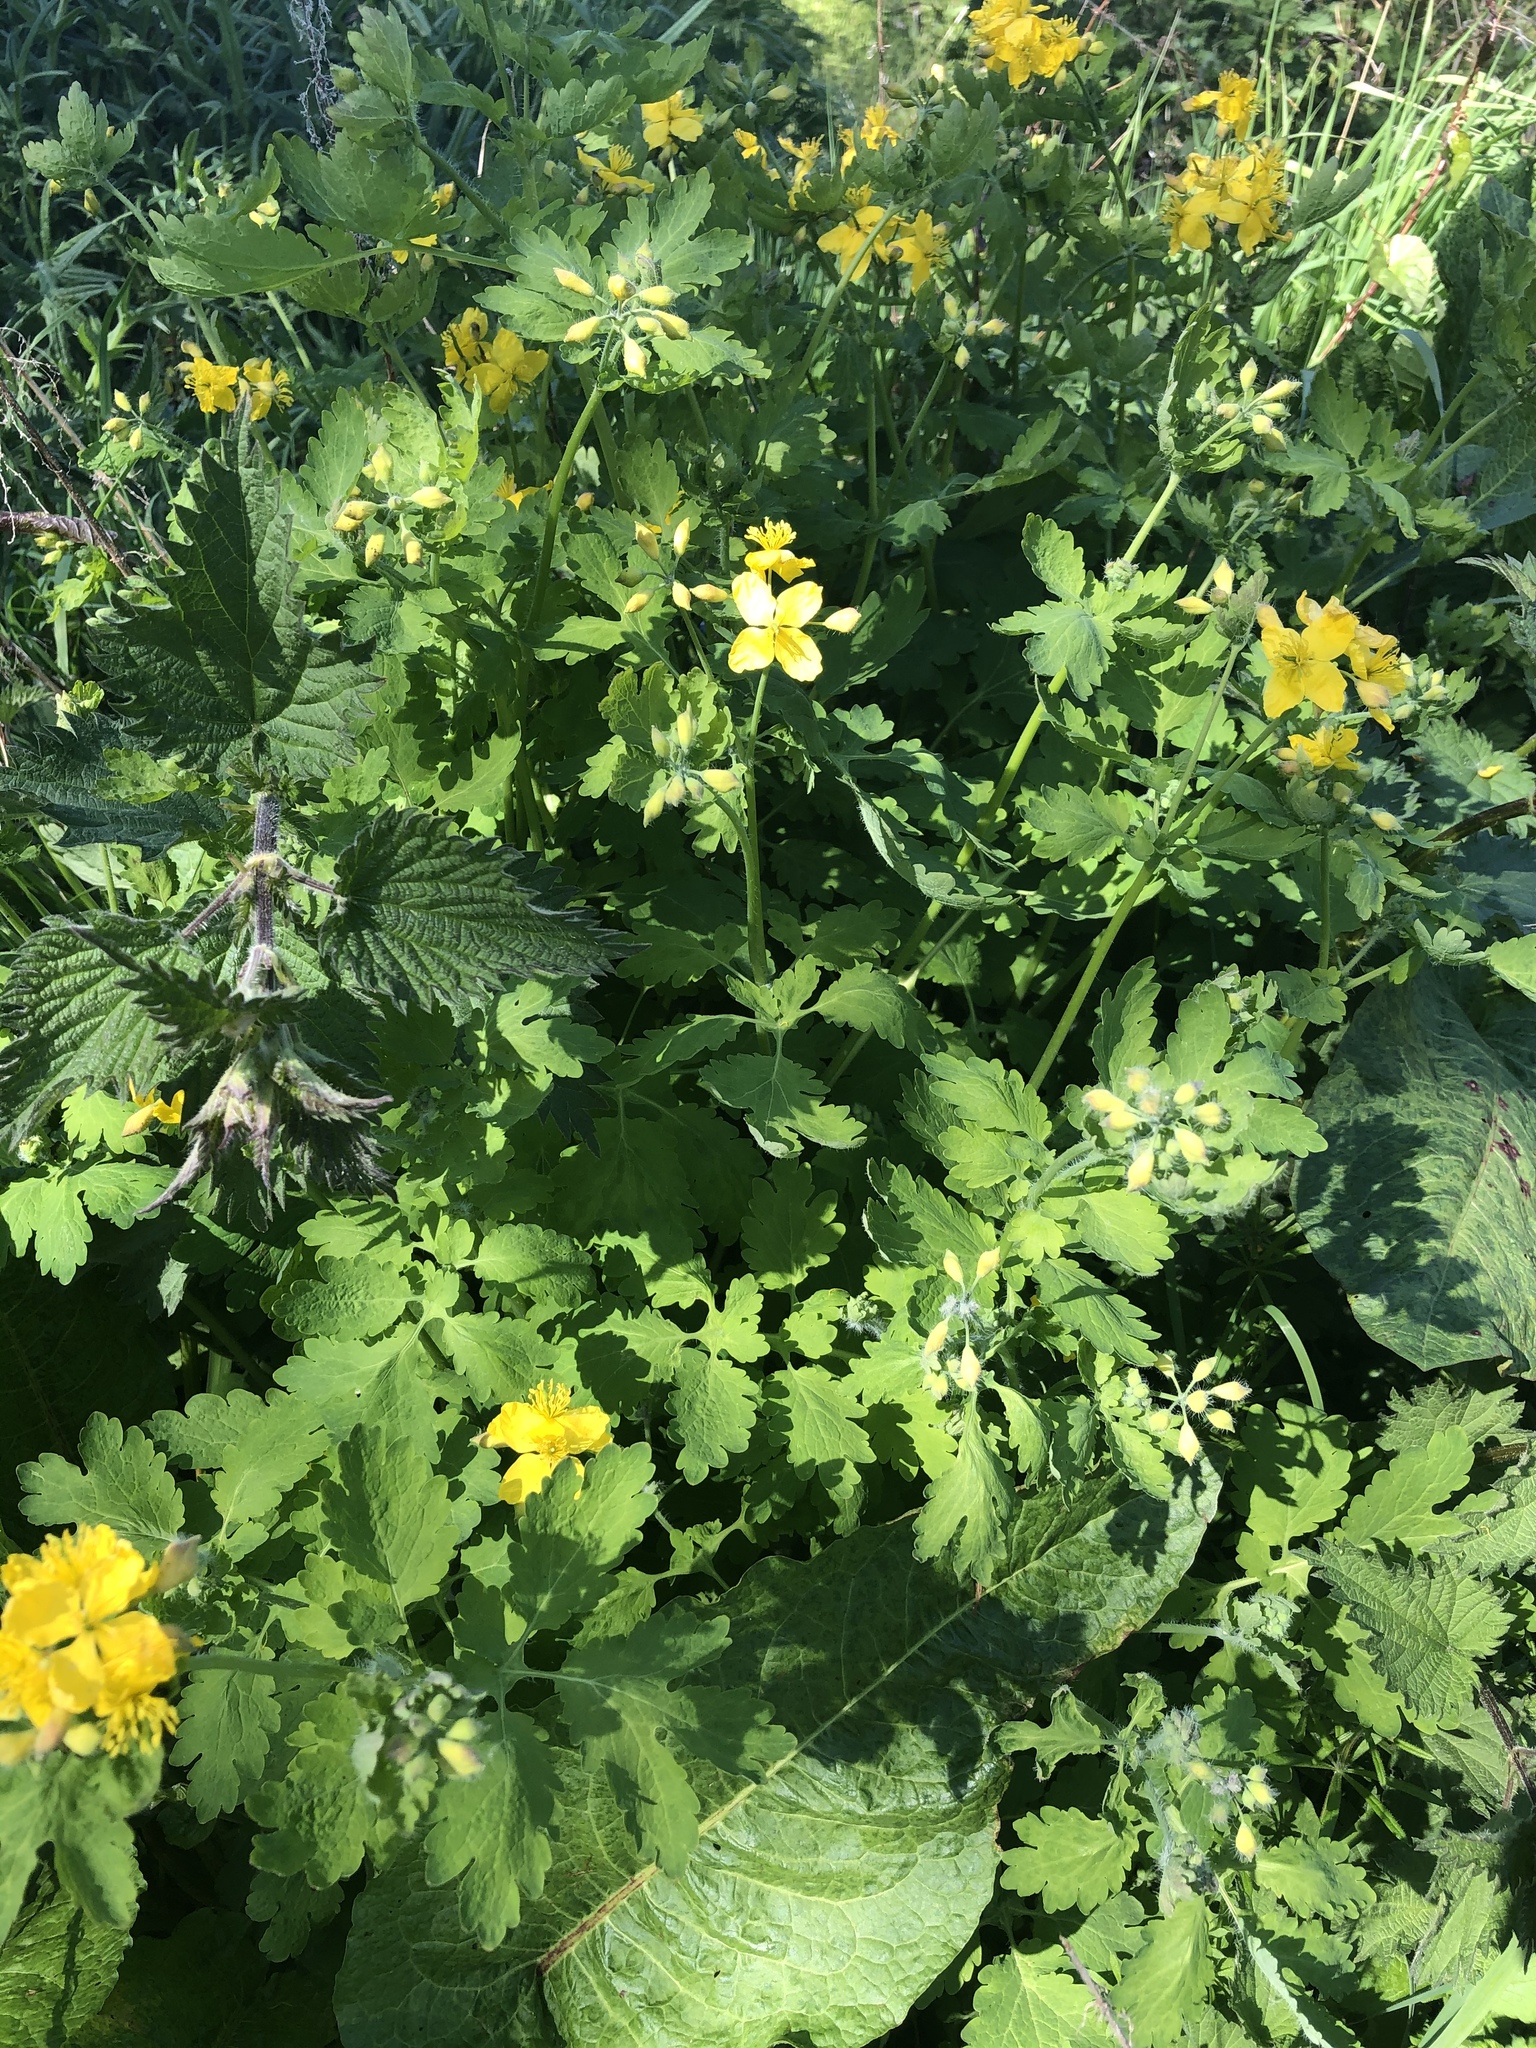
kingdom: Plantae
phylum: Tracheophyta
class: Magnoliopsida
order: Ranunculales
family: Papaveraceae
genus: Chelidonium
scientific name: Chelidonium majus
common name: Greater celandine
